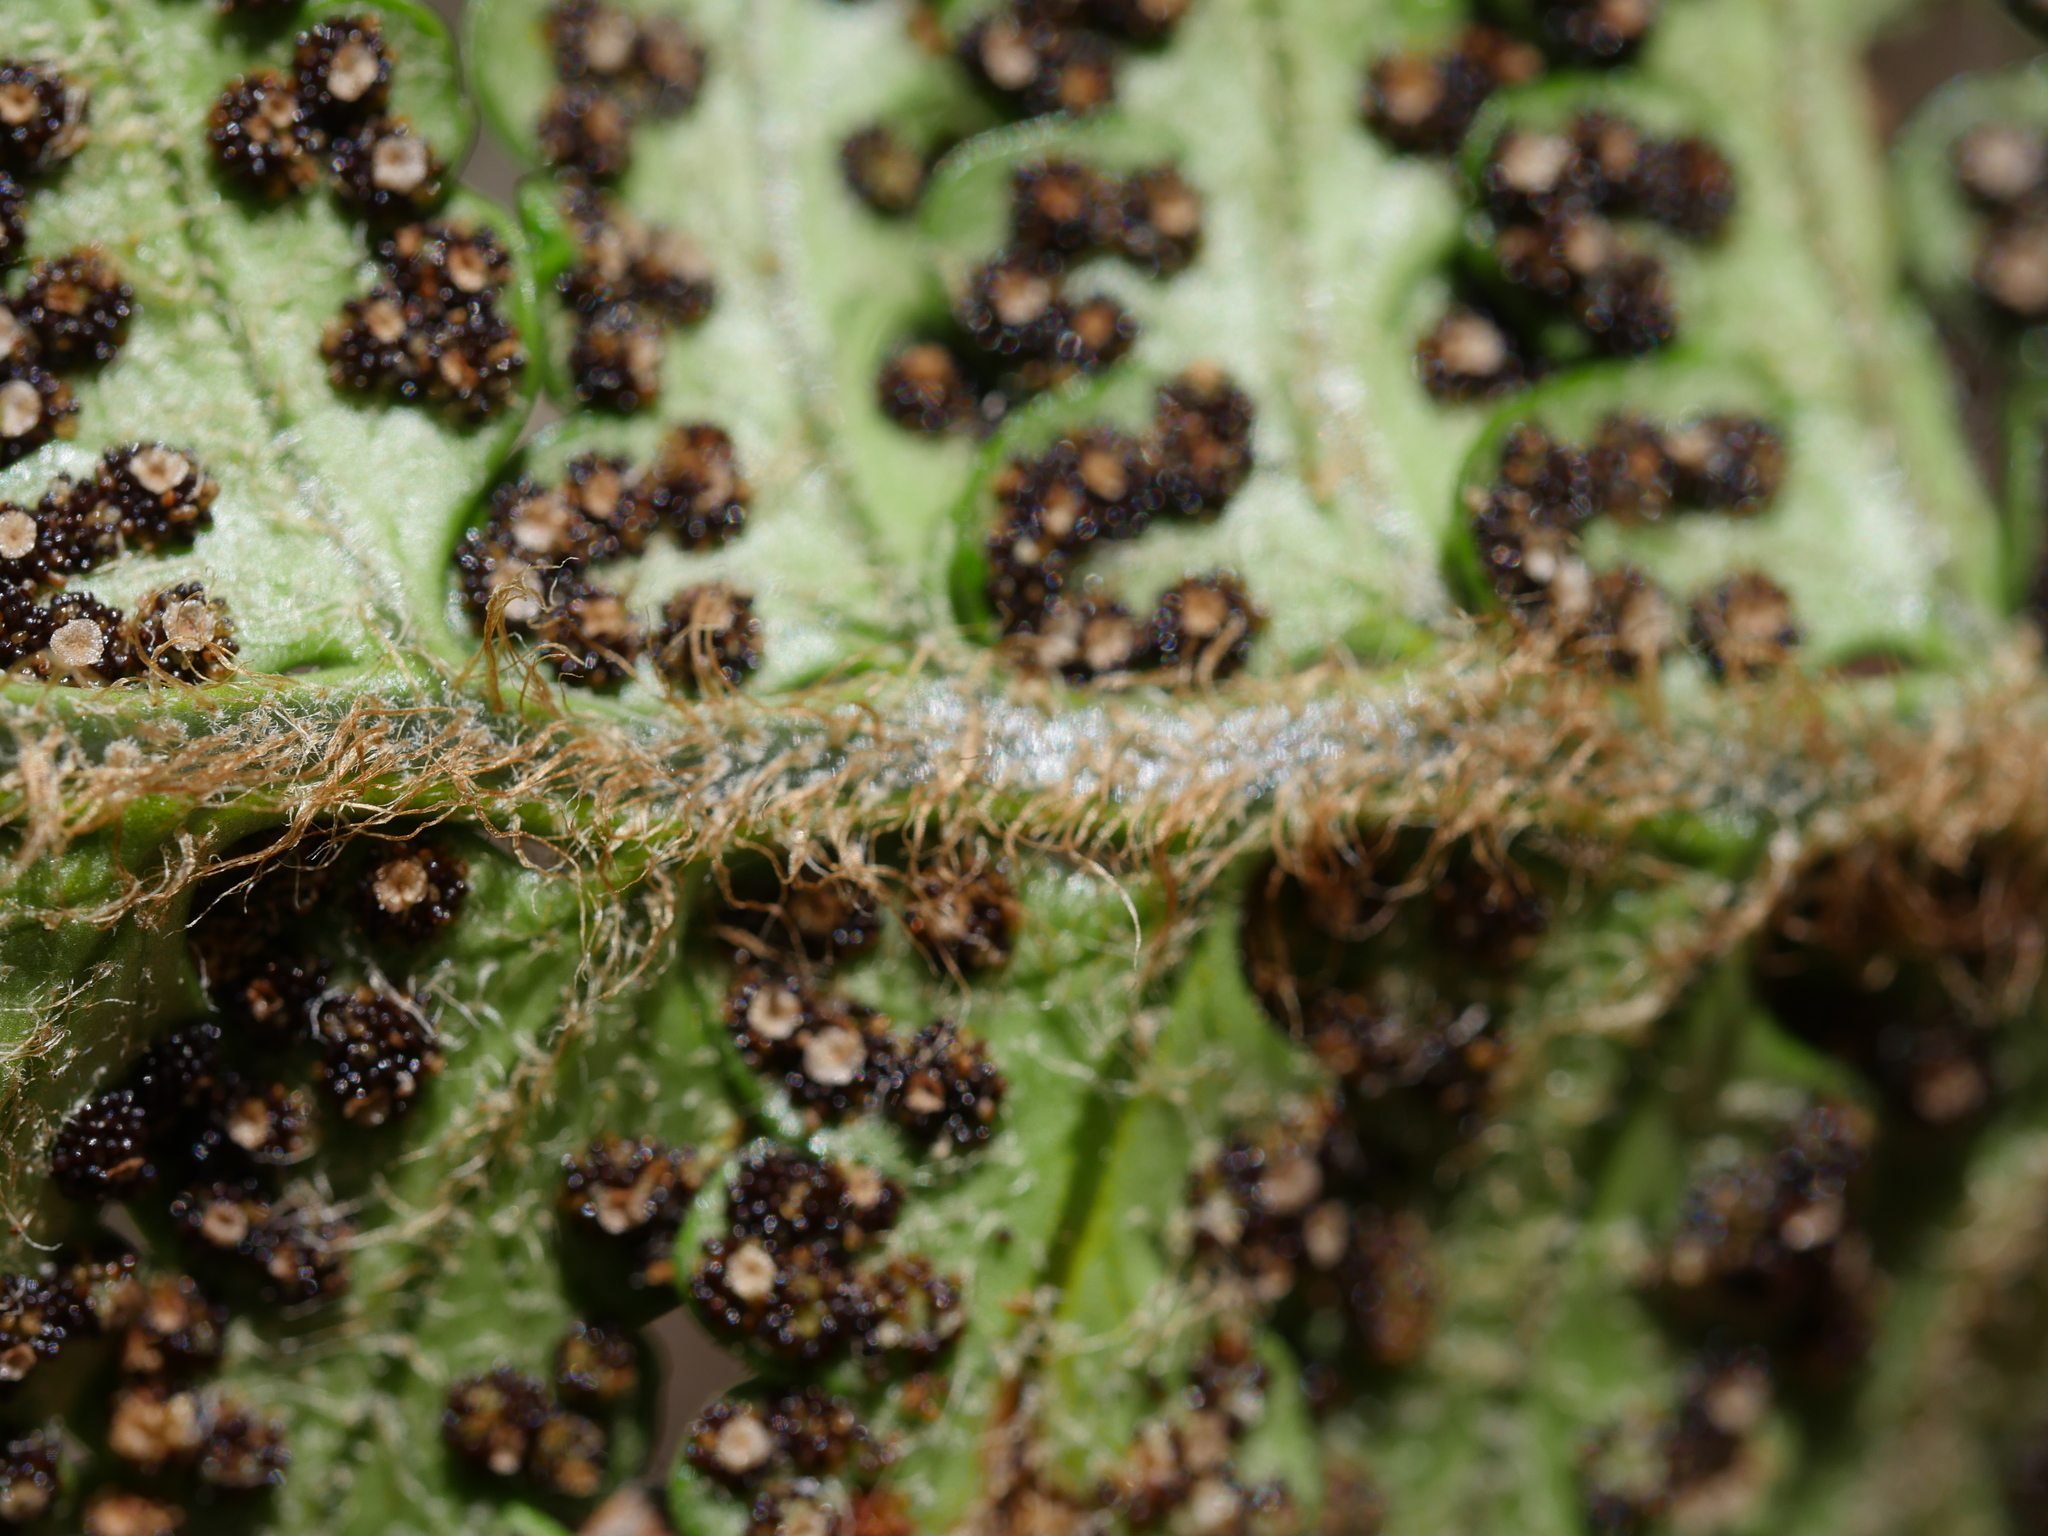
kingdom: Plantae
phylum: Tracheophyta
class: Polypodiopsida
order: Polypodiales
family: Dryopteridaceae
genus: Polystichum
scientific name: Polystichum wawranum
